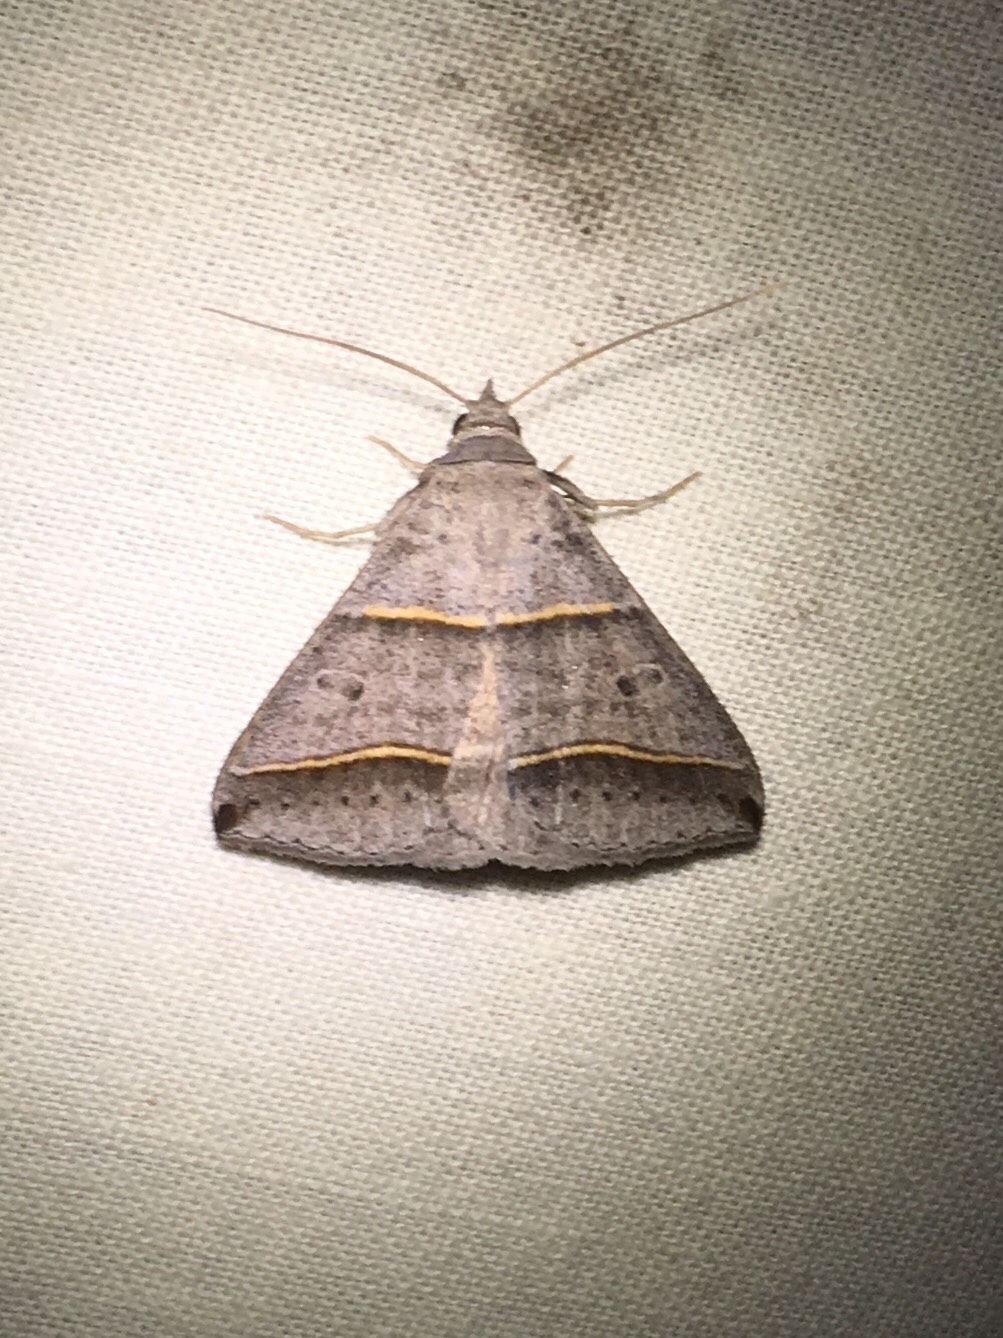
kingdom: Animalia
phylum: Arthropoda
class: Insecta
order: Lepidoptera
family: Erebidae
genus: Ptichodis
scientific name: Ptichodis vinculum
